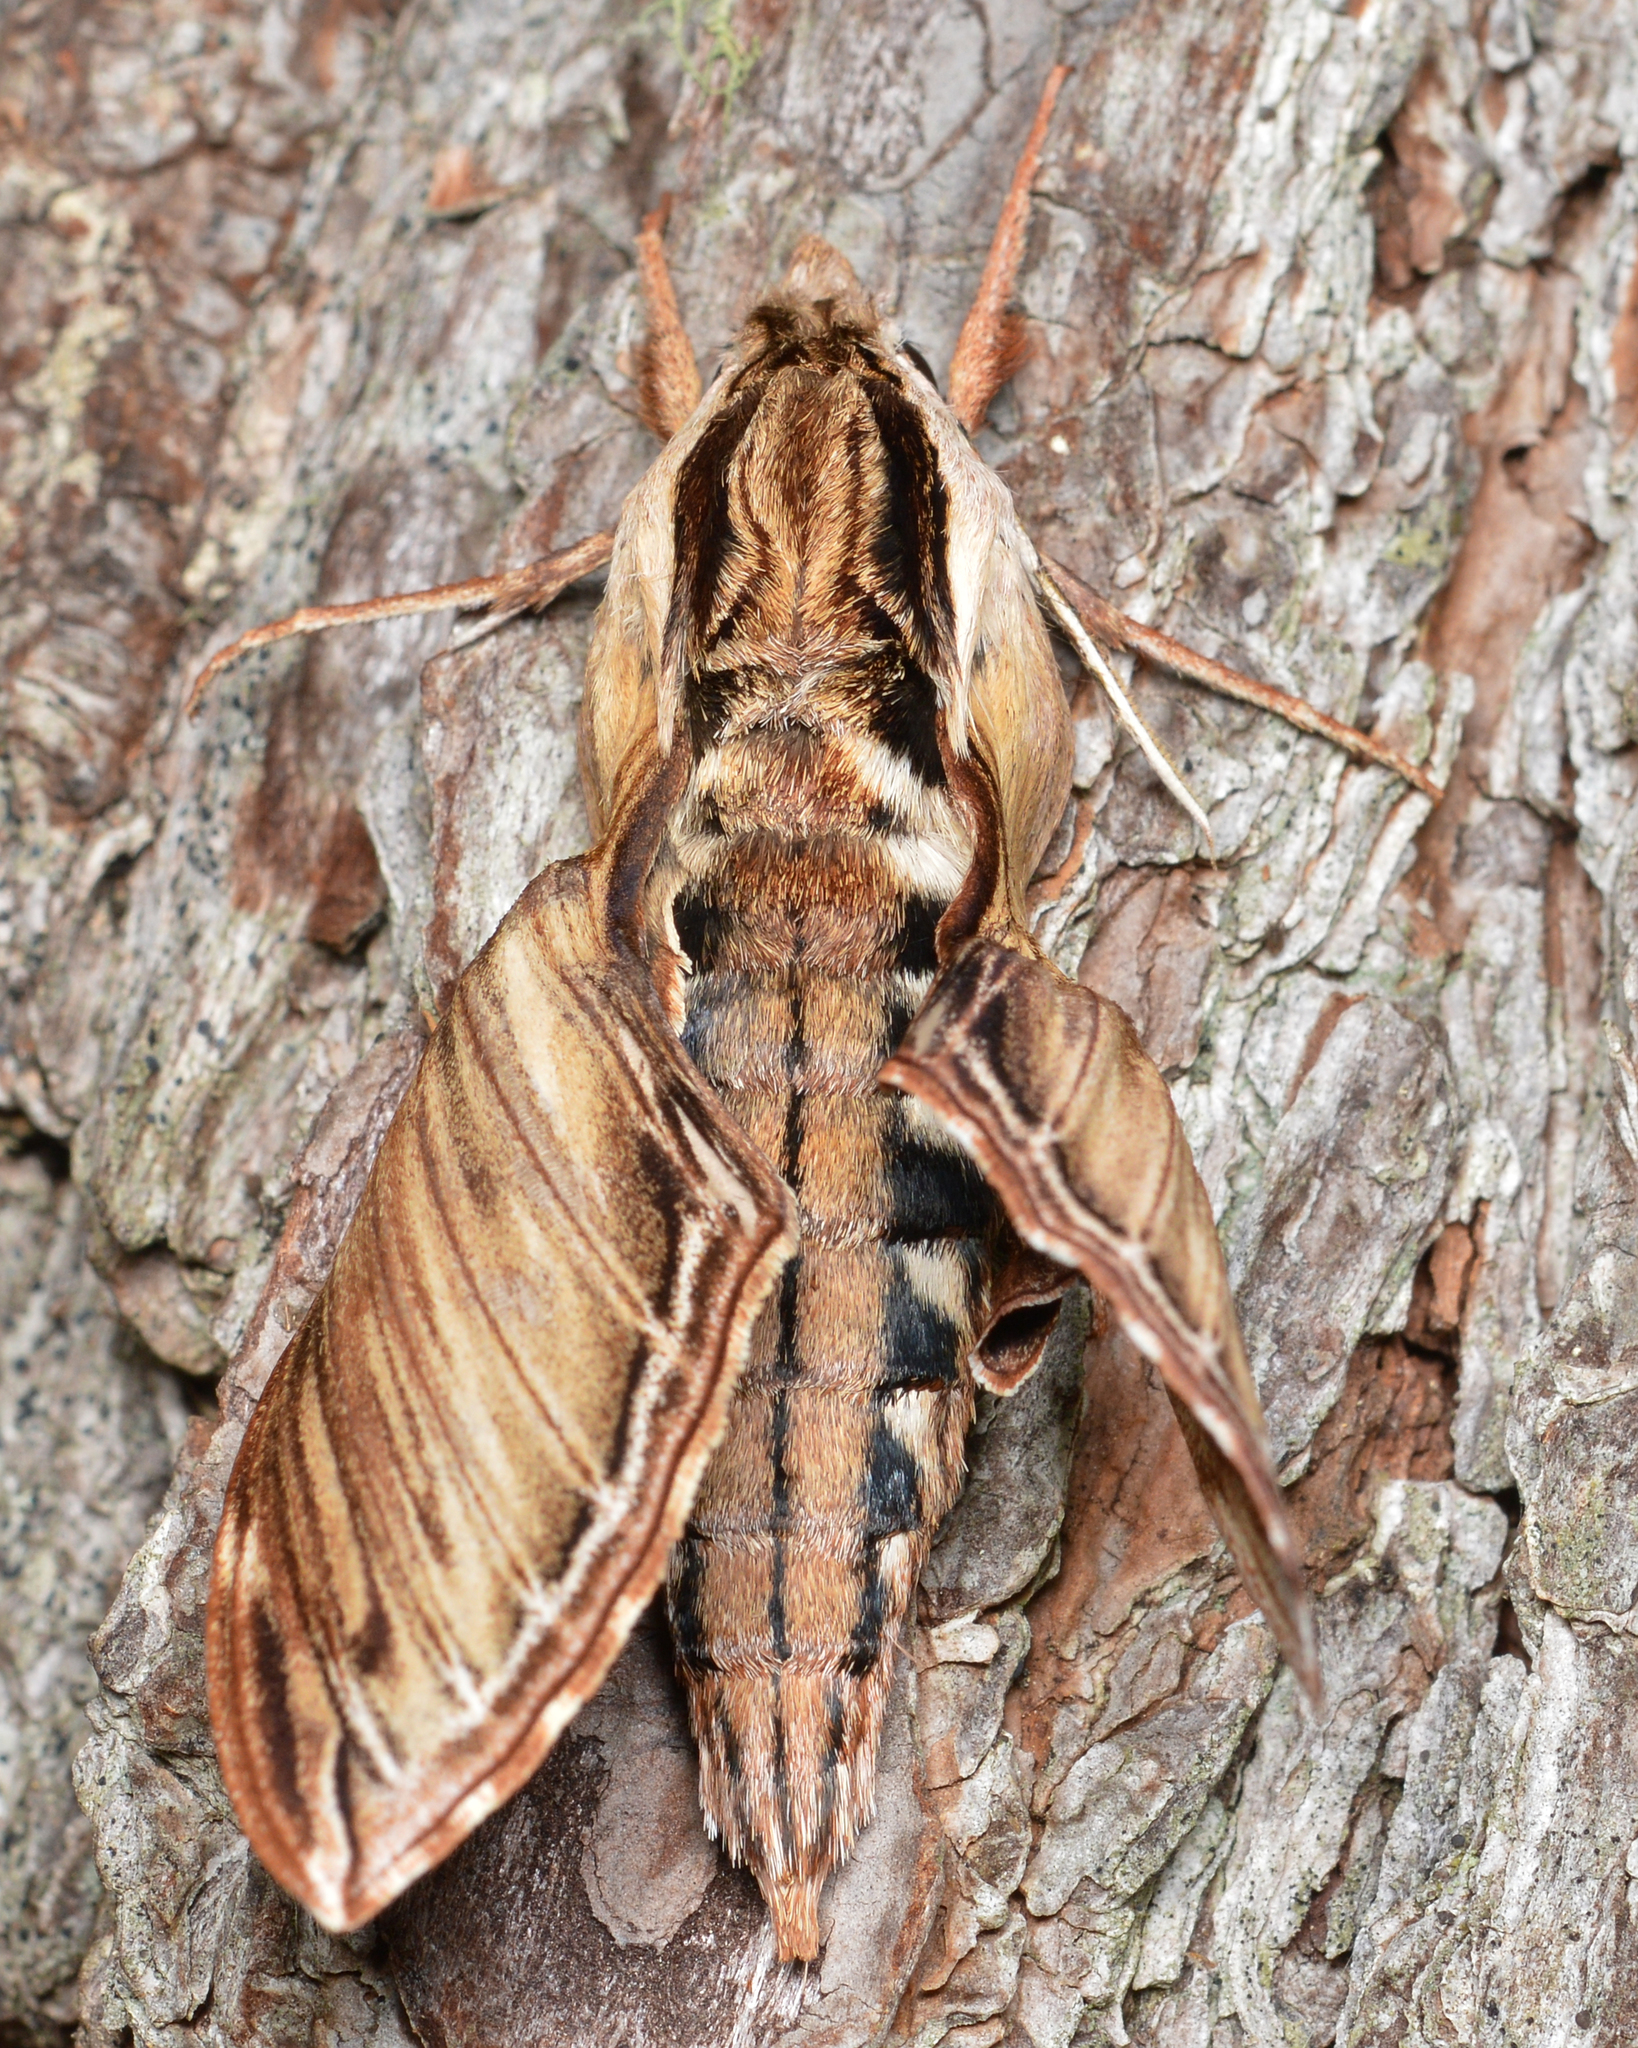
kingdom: Animalia
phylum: Arthropoda
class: Insecta
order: Lepidoptera
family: Sphingidae
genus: Sphinx
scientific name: Sphinx kalmiae
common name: Laurel sphinx
